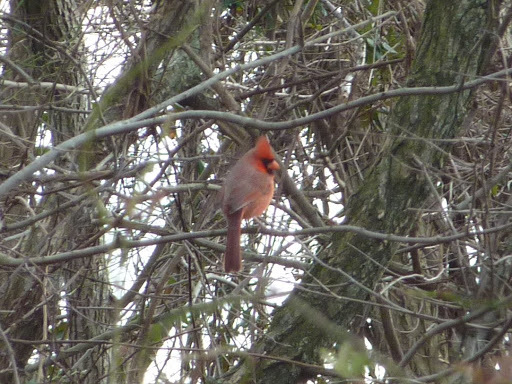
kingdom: Animalia
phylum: Chordata
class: Aves
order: Passeriformes
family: Cardinalidae
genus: Cardinalis
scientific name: Cardinalis cardinalis
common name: Northern cardinal
